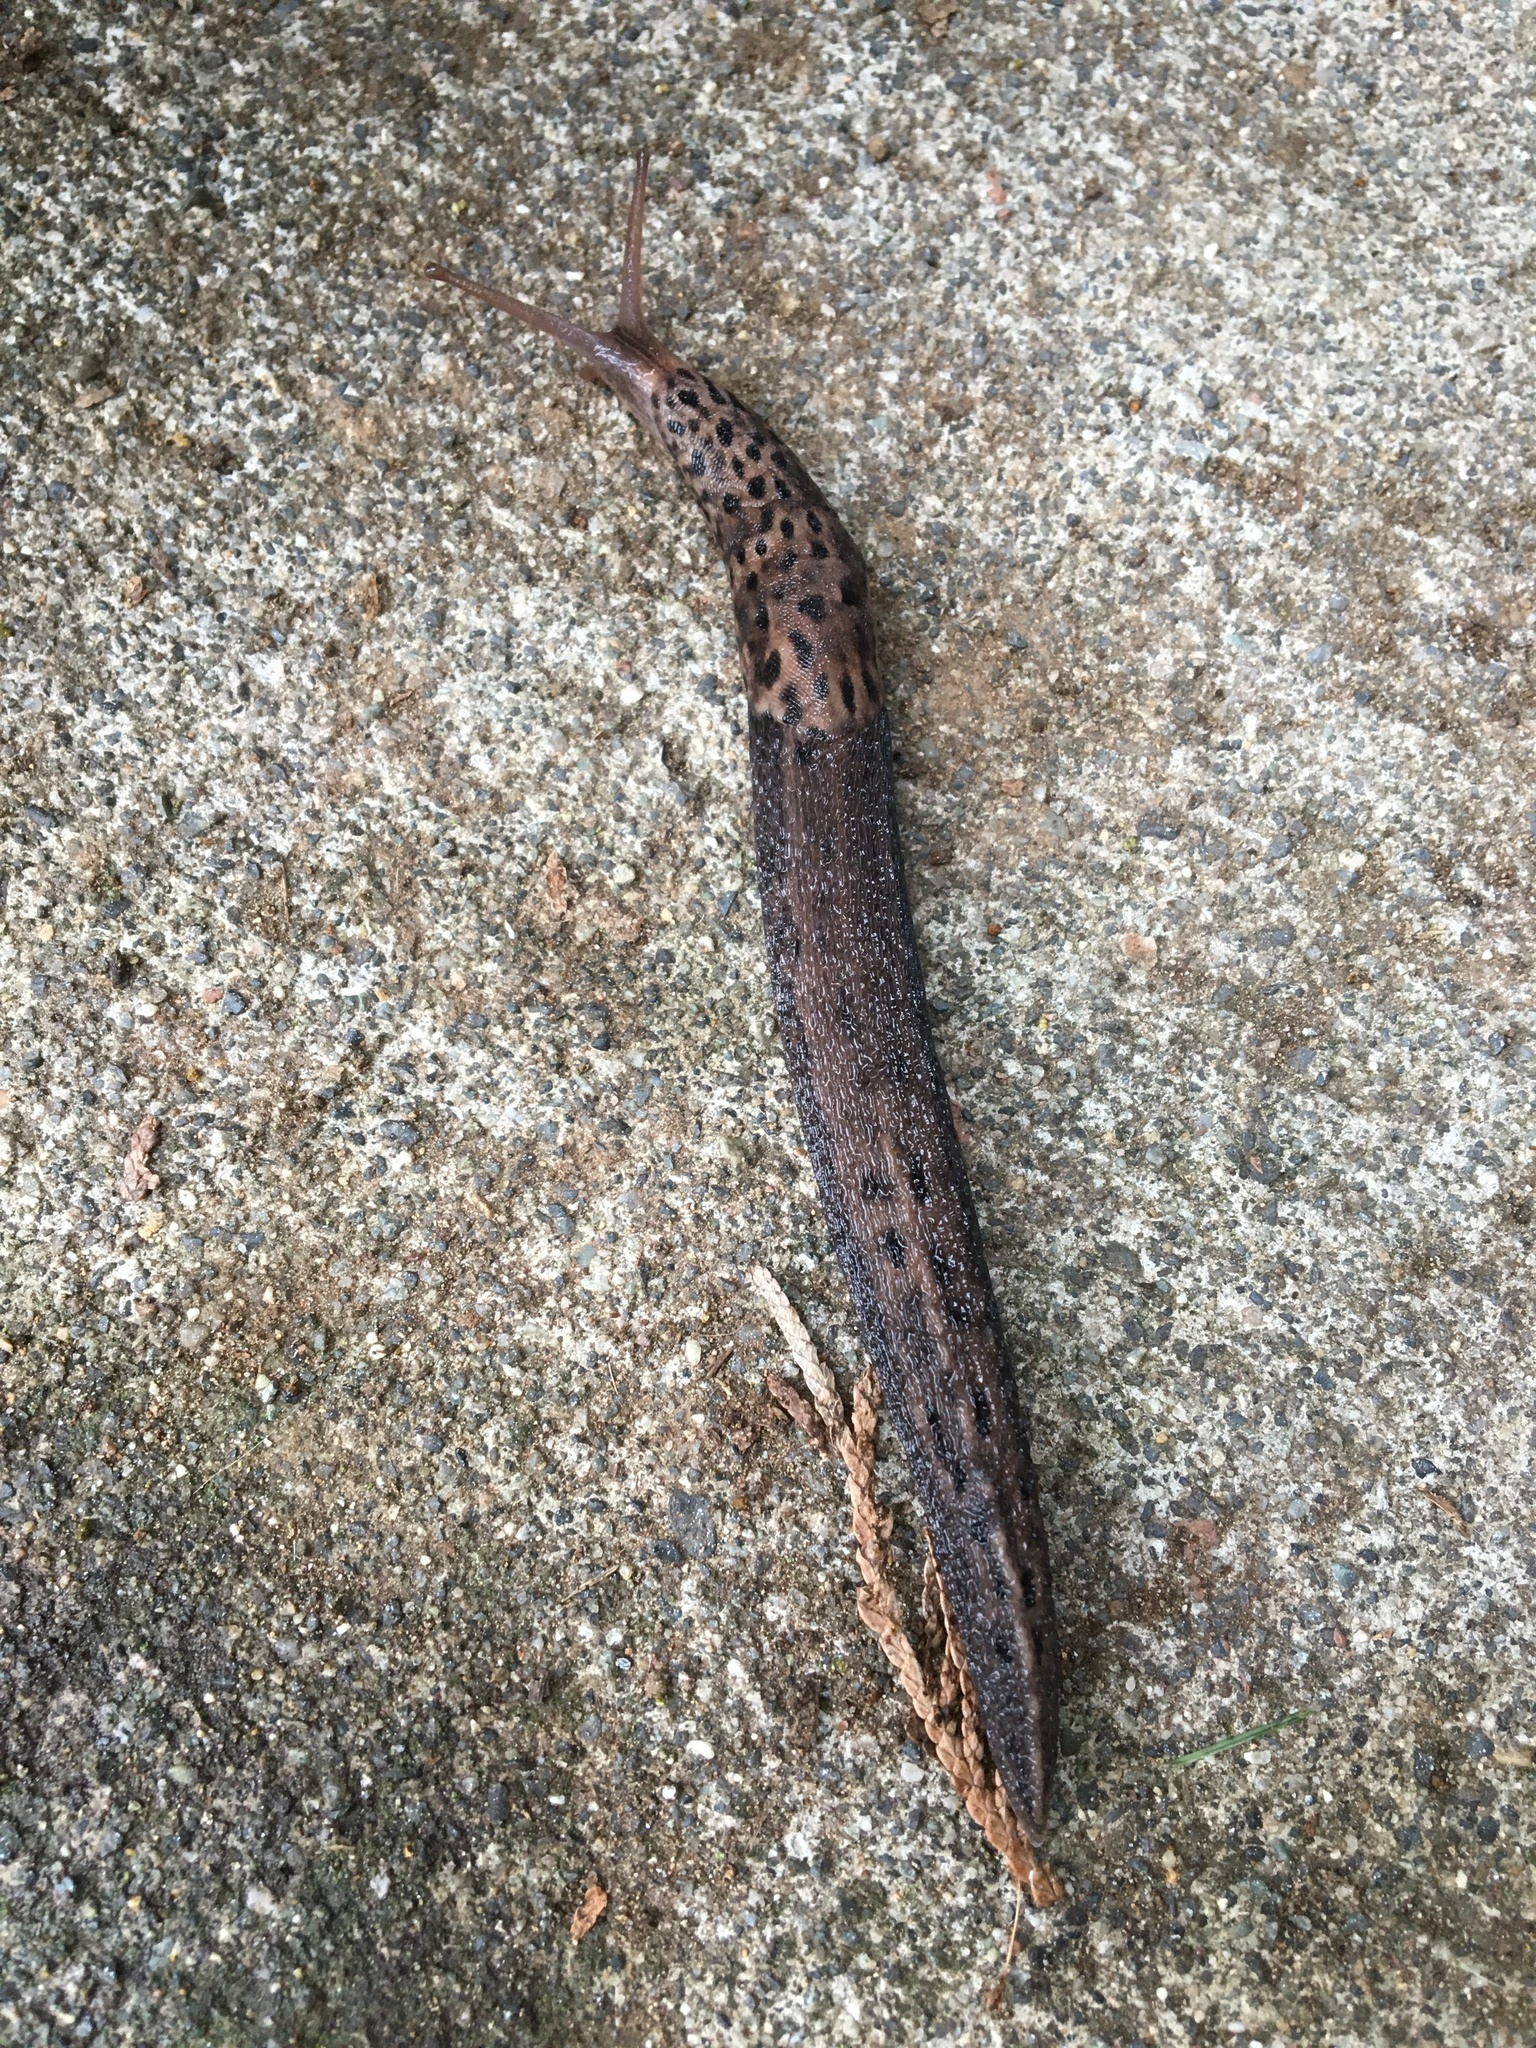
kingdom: Animalia
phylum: Mollusca
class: Gastropoda
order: Stylommatophora
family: Limacidae
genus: Limax
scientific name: Limax maximus
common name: Great grey slug
